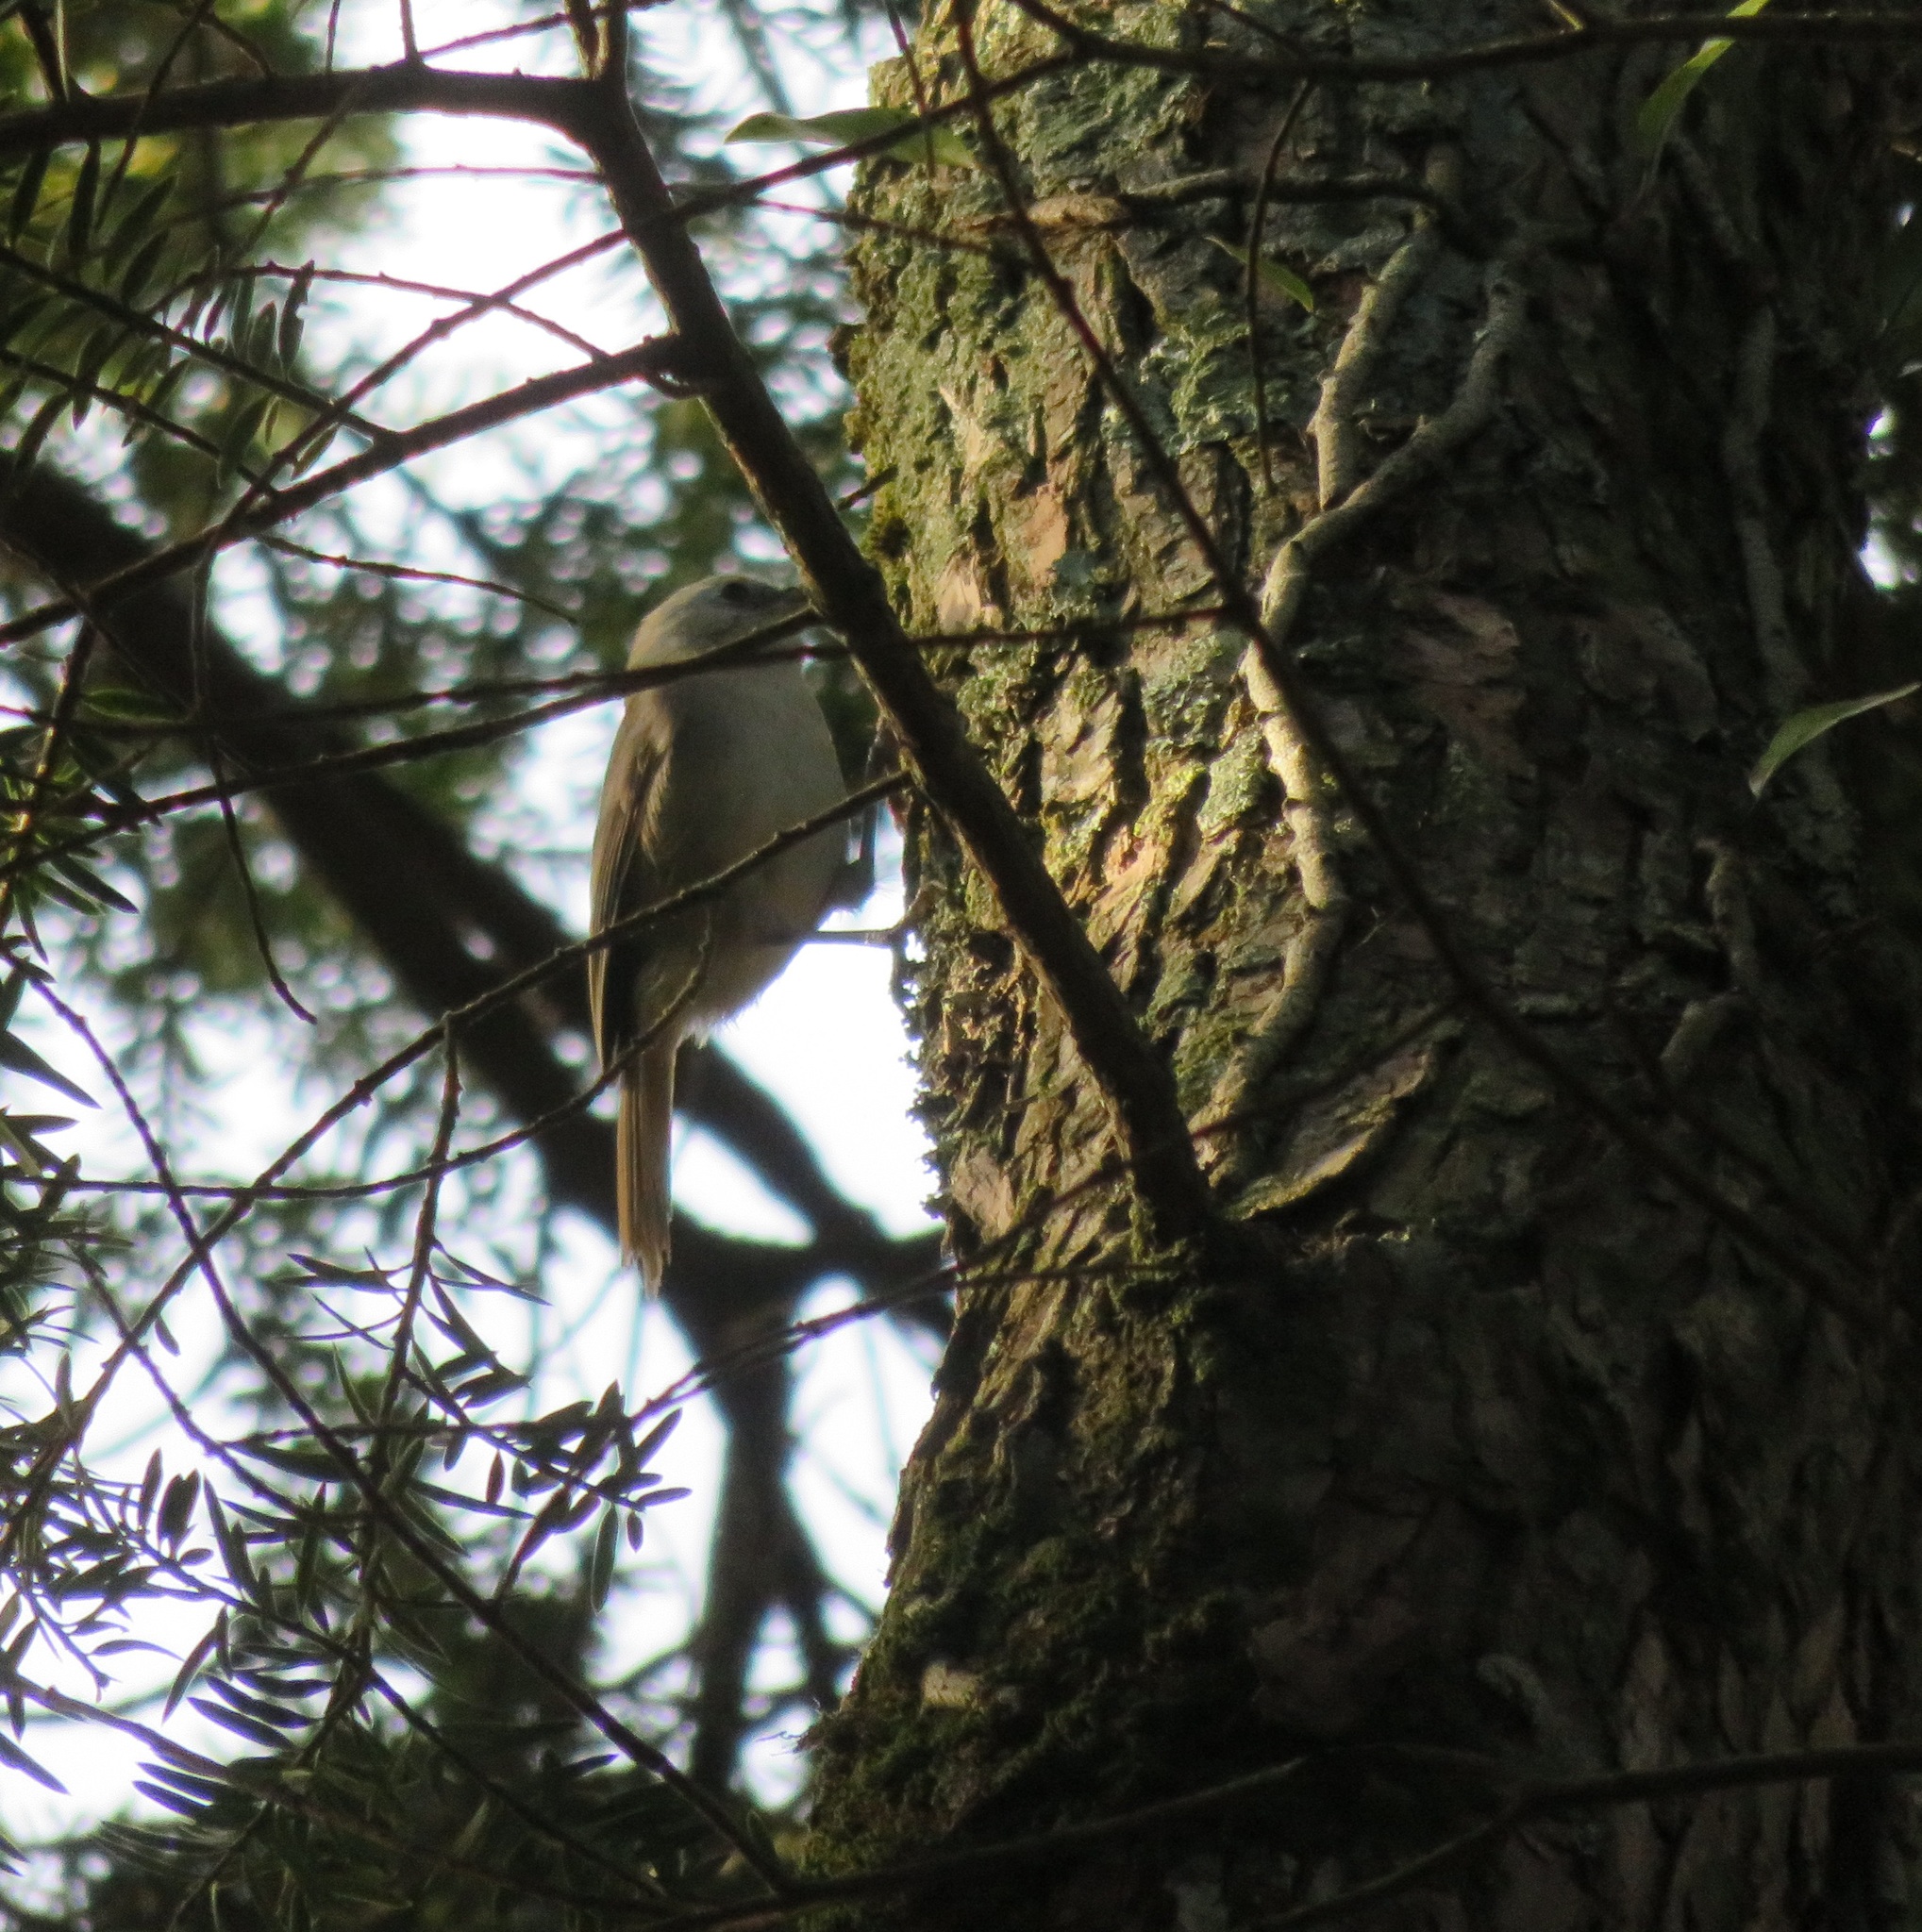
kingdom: Animalia
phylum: Chordata
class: Aves
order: Passeriformes
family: Acanthizidae
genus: Mohoua
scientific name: Mohoua albicilla
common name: Whitehead
